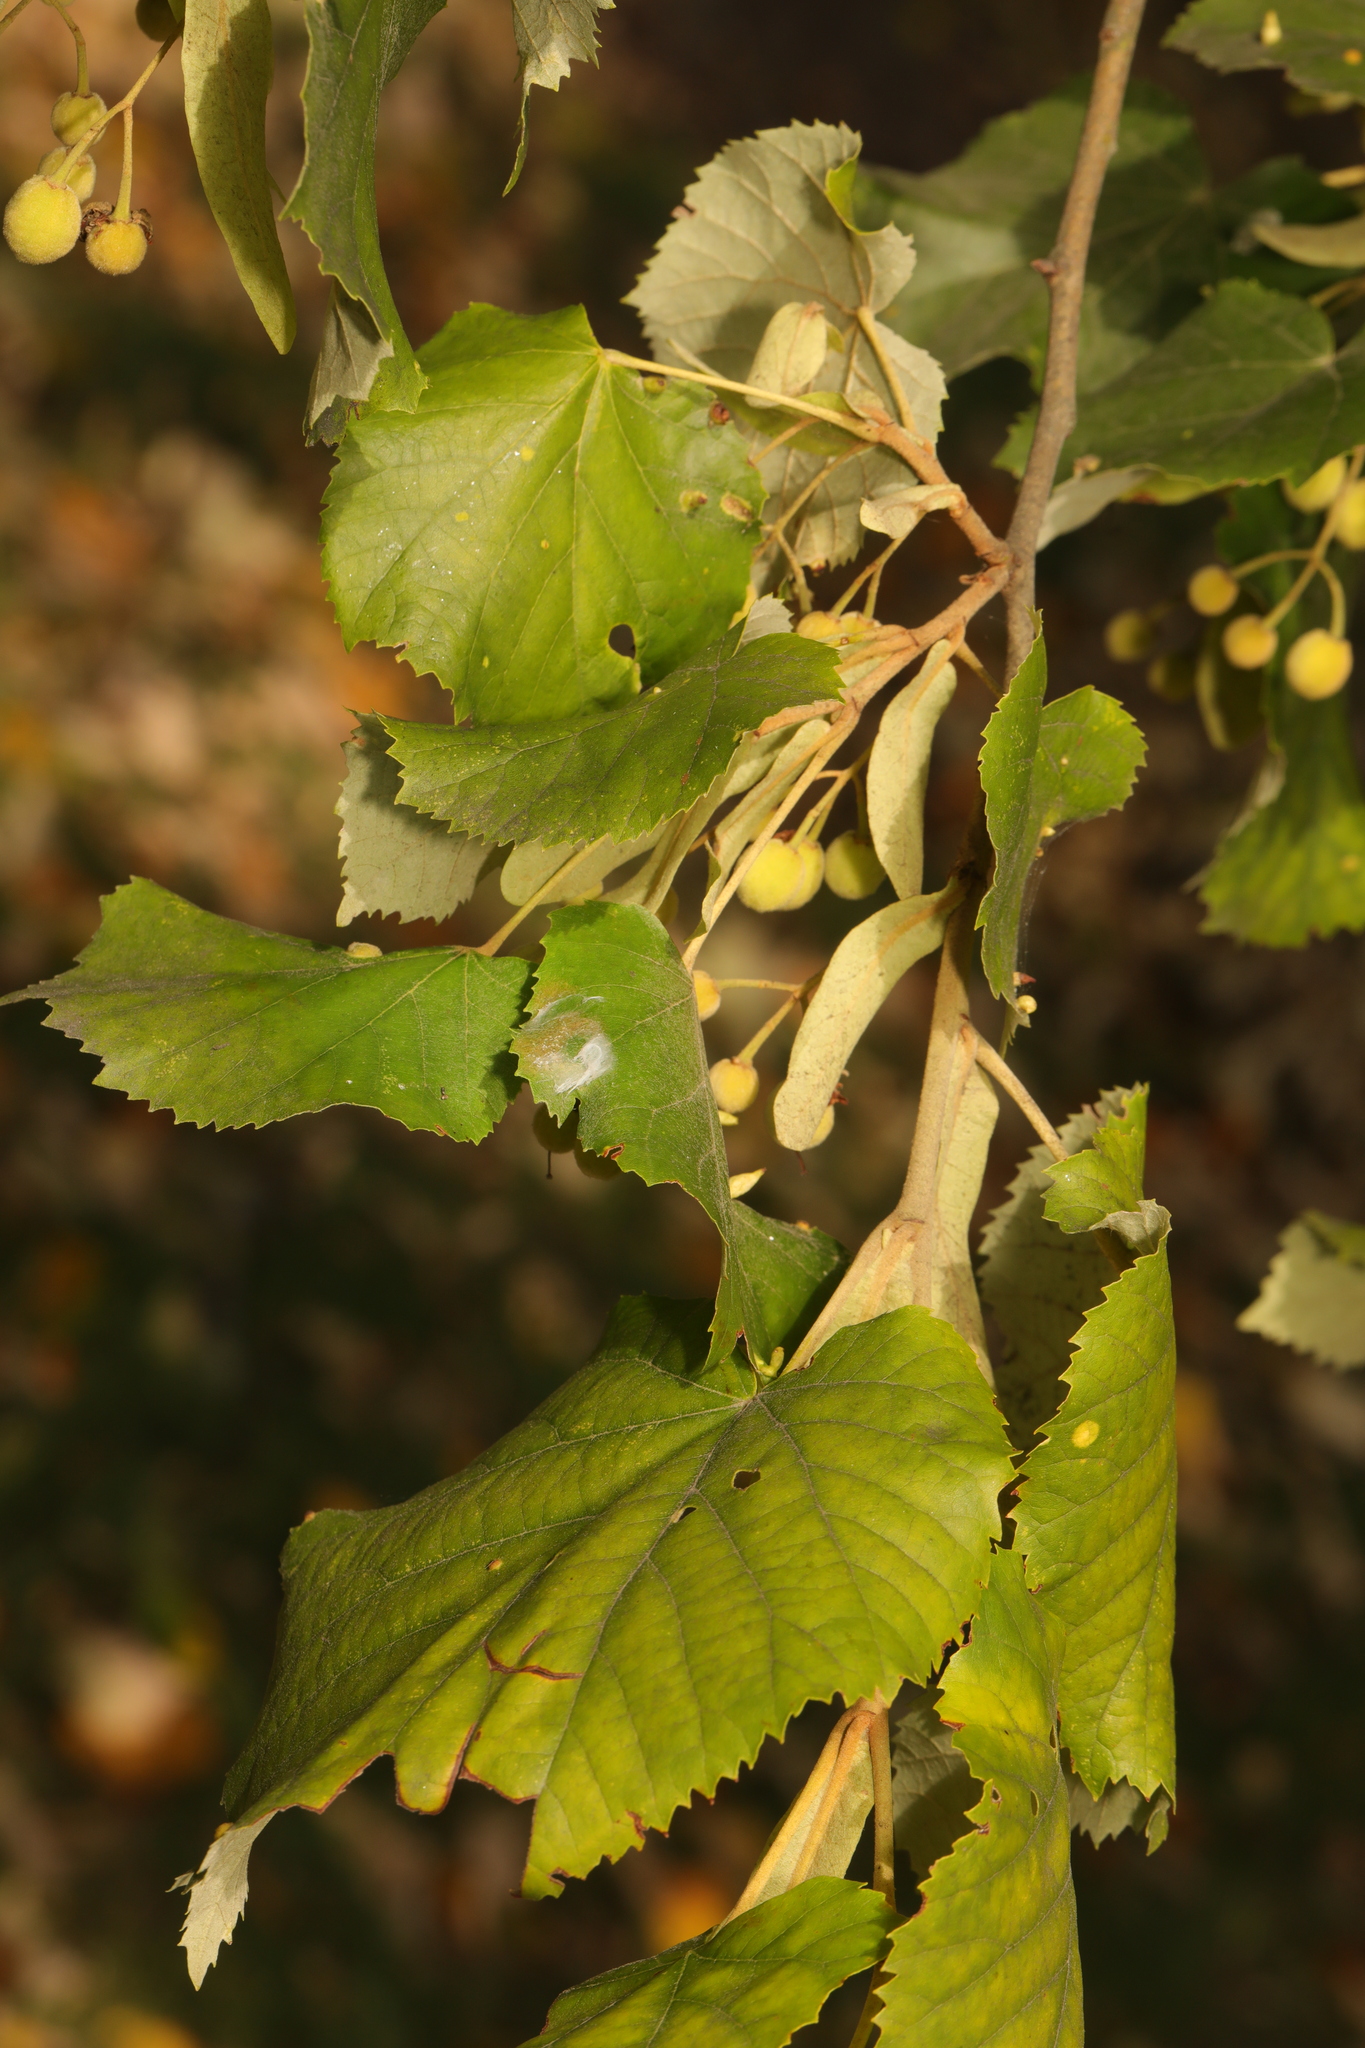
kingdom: Plantae
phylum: Tracheophyta
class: Magnoliopsida
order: Malvales
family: Malvaceae
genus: Tilia
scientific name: Tilia tomentosa
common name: Silver lime
